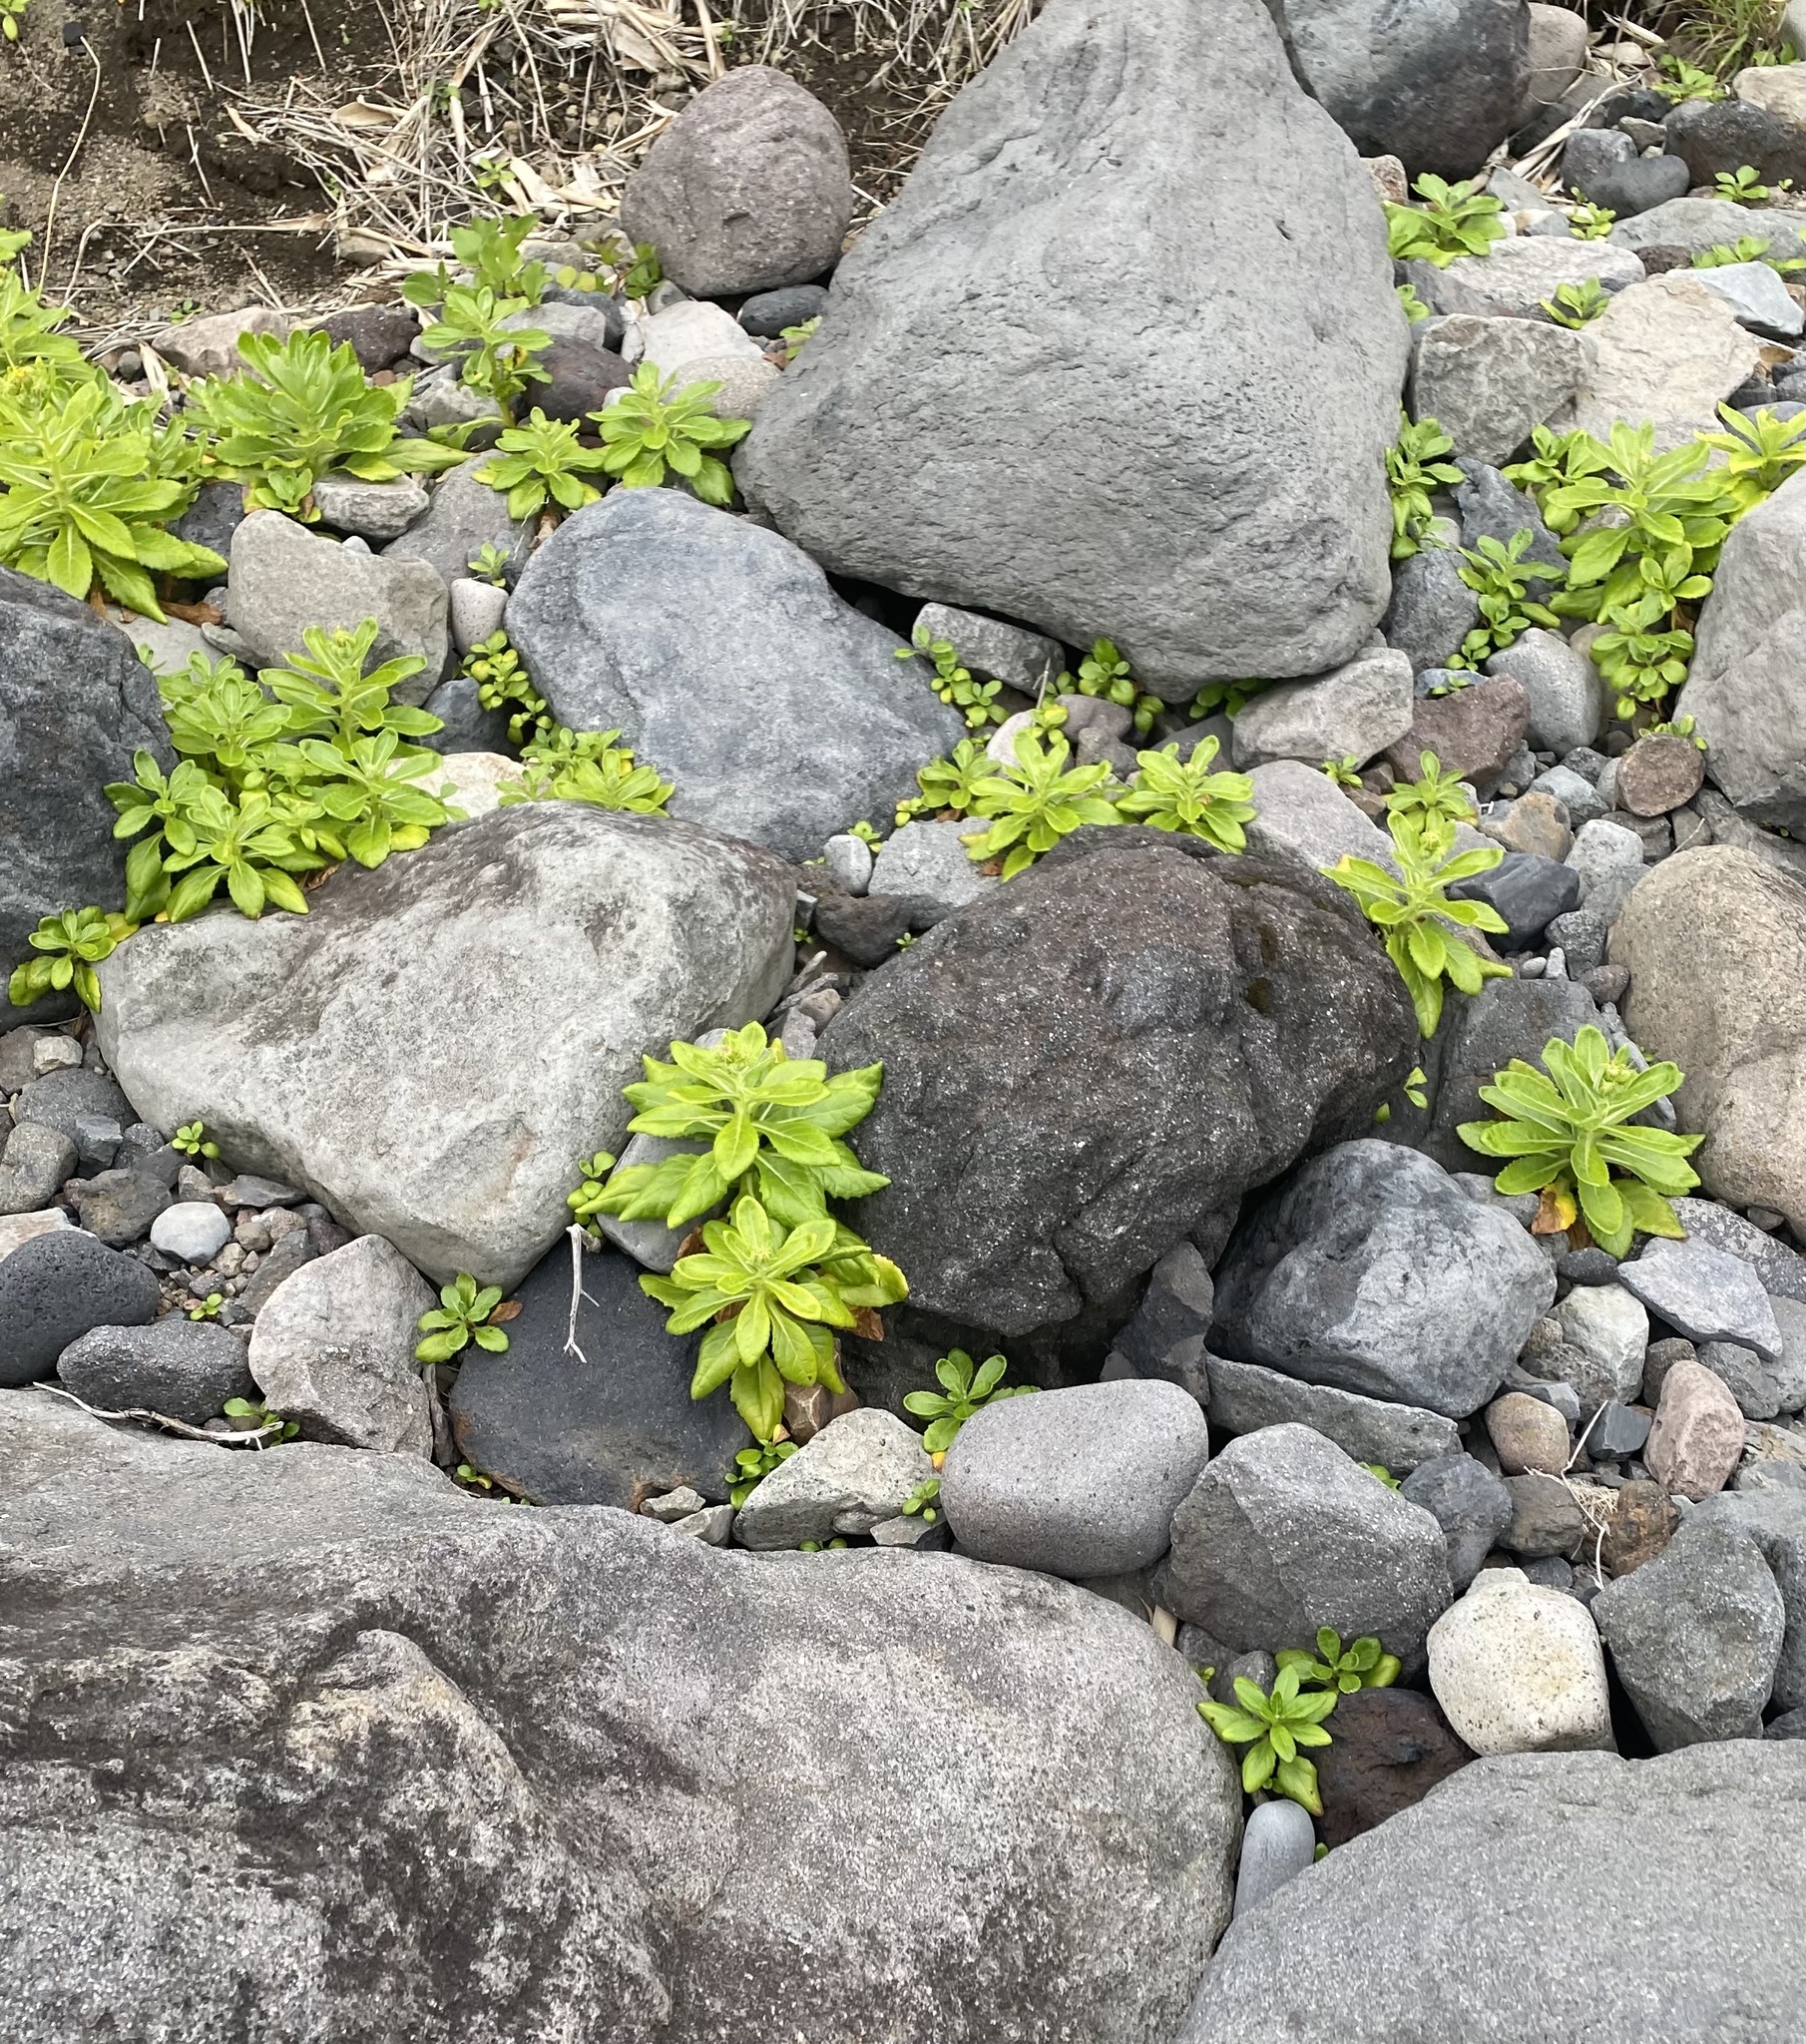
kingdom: Plantae
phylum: Tracheophyta
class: Magnoliopsida
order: Asterales
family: Asteraceae
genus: Jacobaea
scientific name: Jacobaea pseudoarnica
